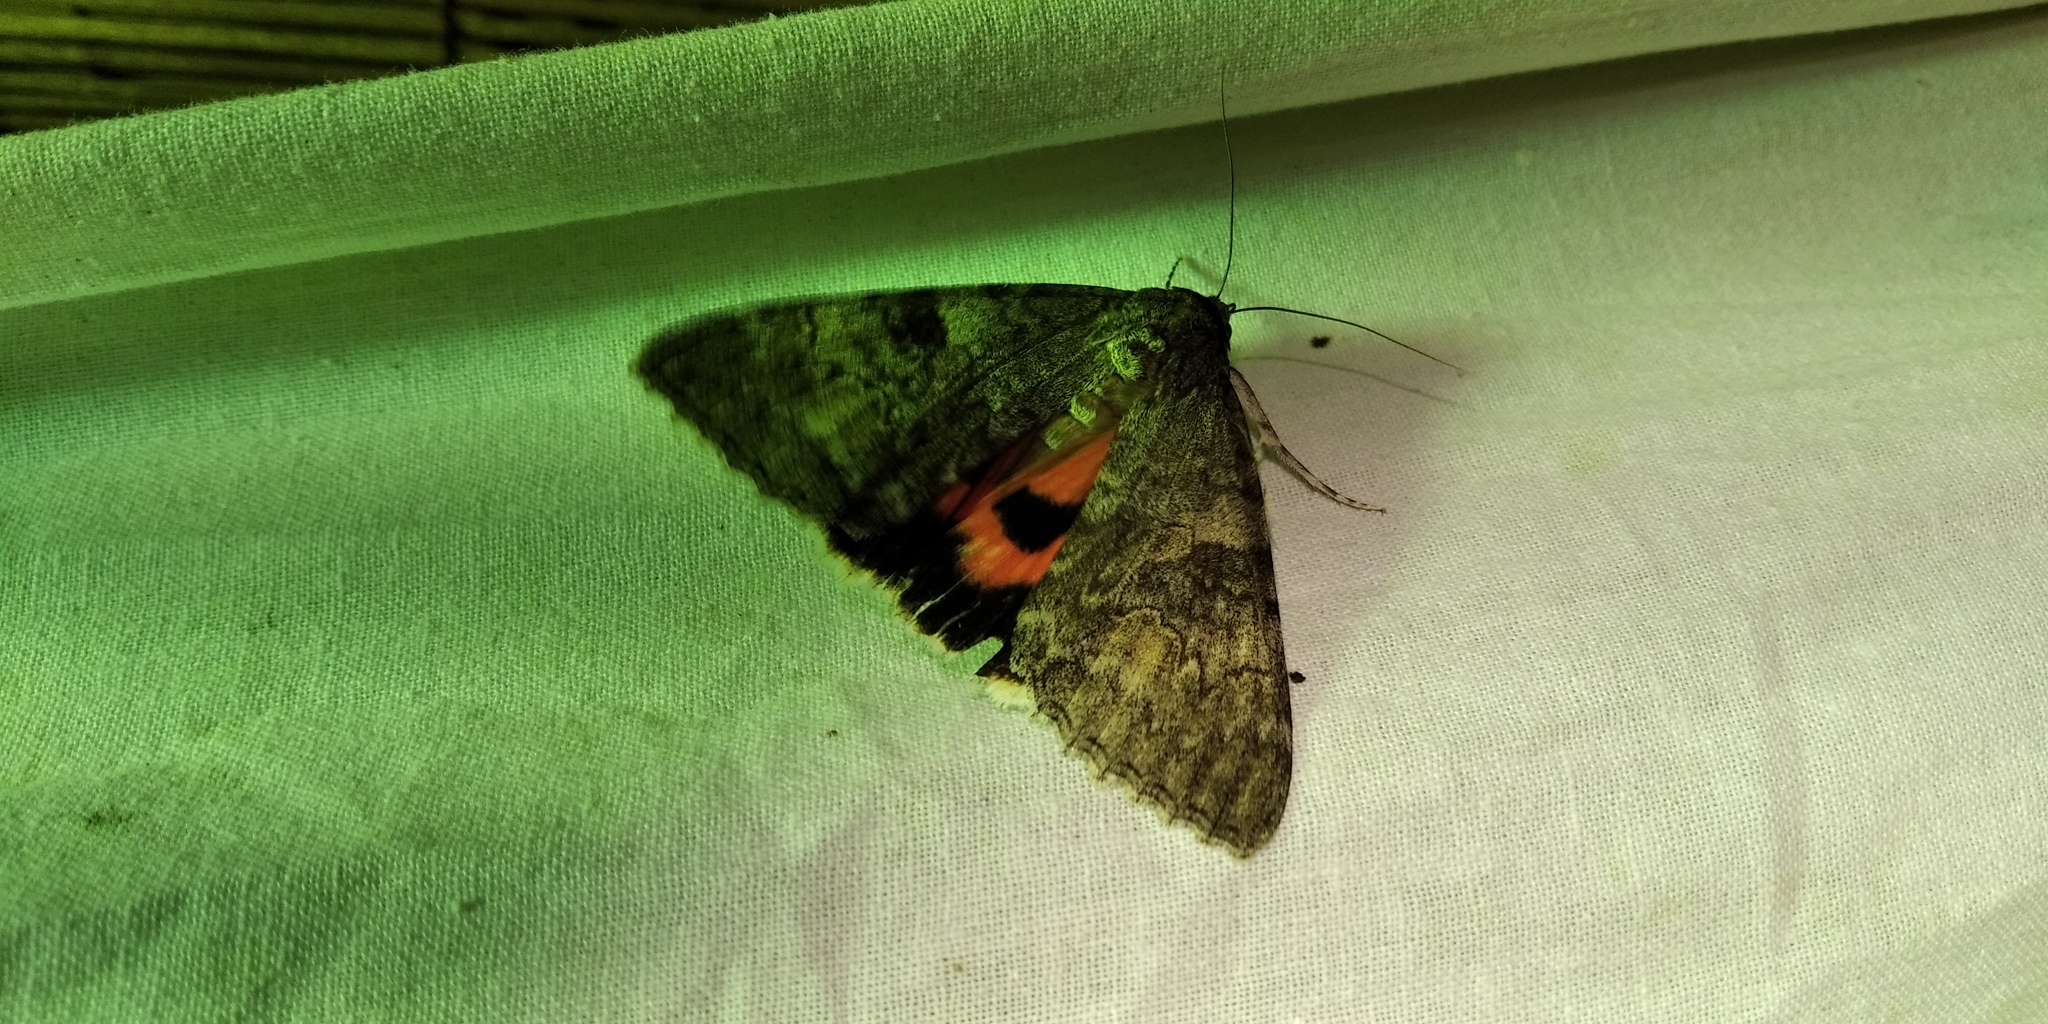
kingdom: Animalia
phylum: Arthropoda
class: Insecta
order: Lepidoptera
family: Erebidae
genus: Catocala
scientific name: Catocala nupta
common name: Red underwing
